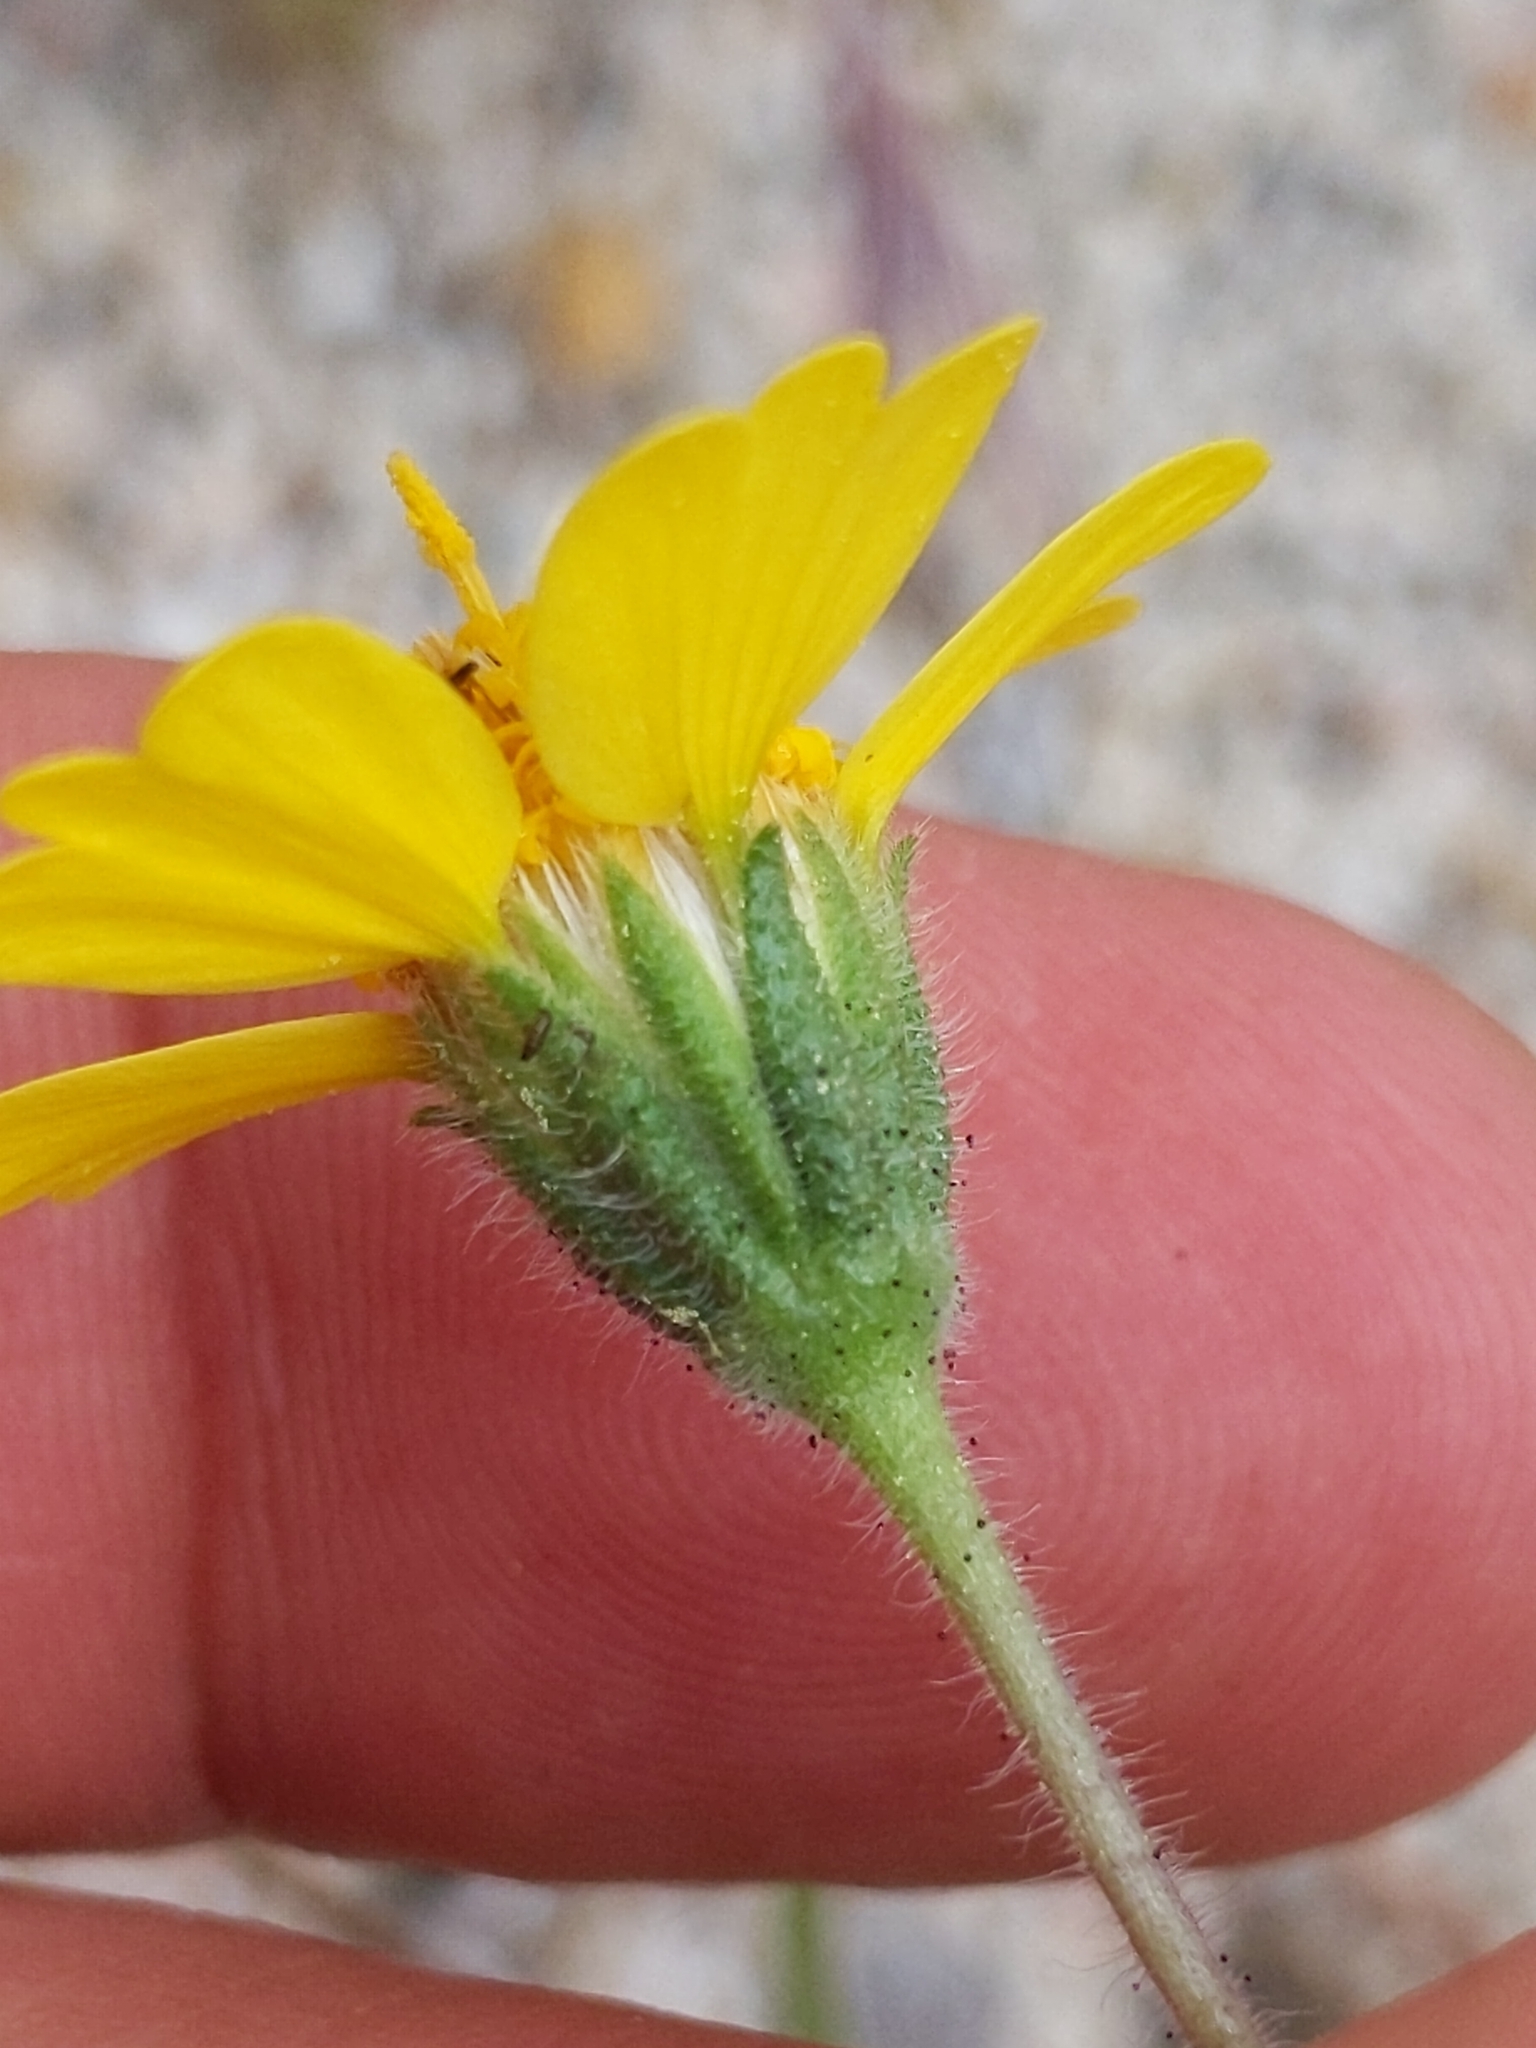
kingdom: Plantae
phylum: Tracheophyta
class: Magnoliopsida
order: Asterales
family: Asteraceae
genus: Layia
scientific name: Layia glandulosa
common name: White layia
